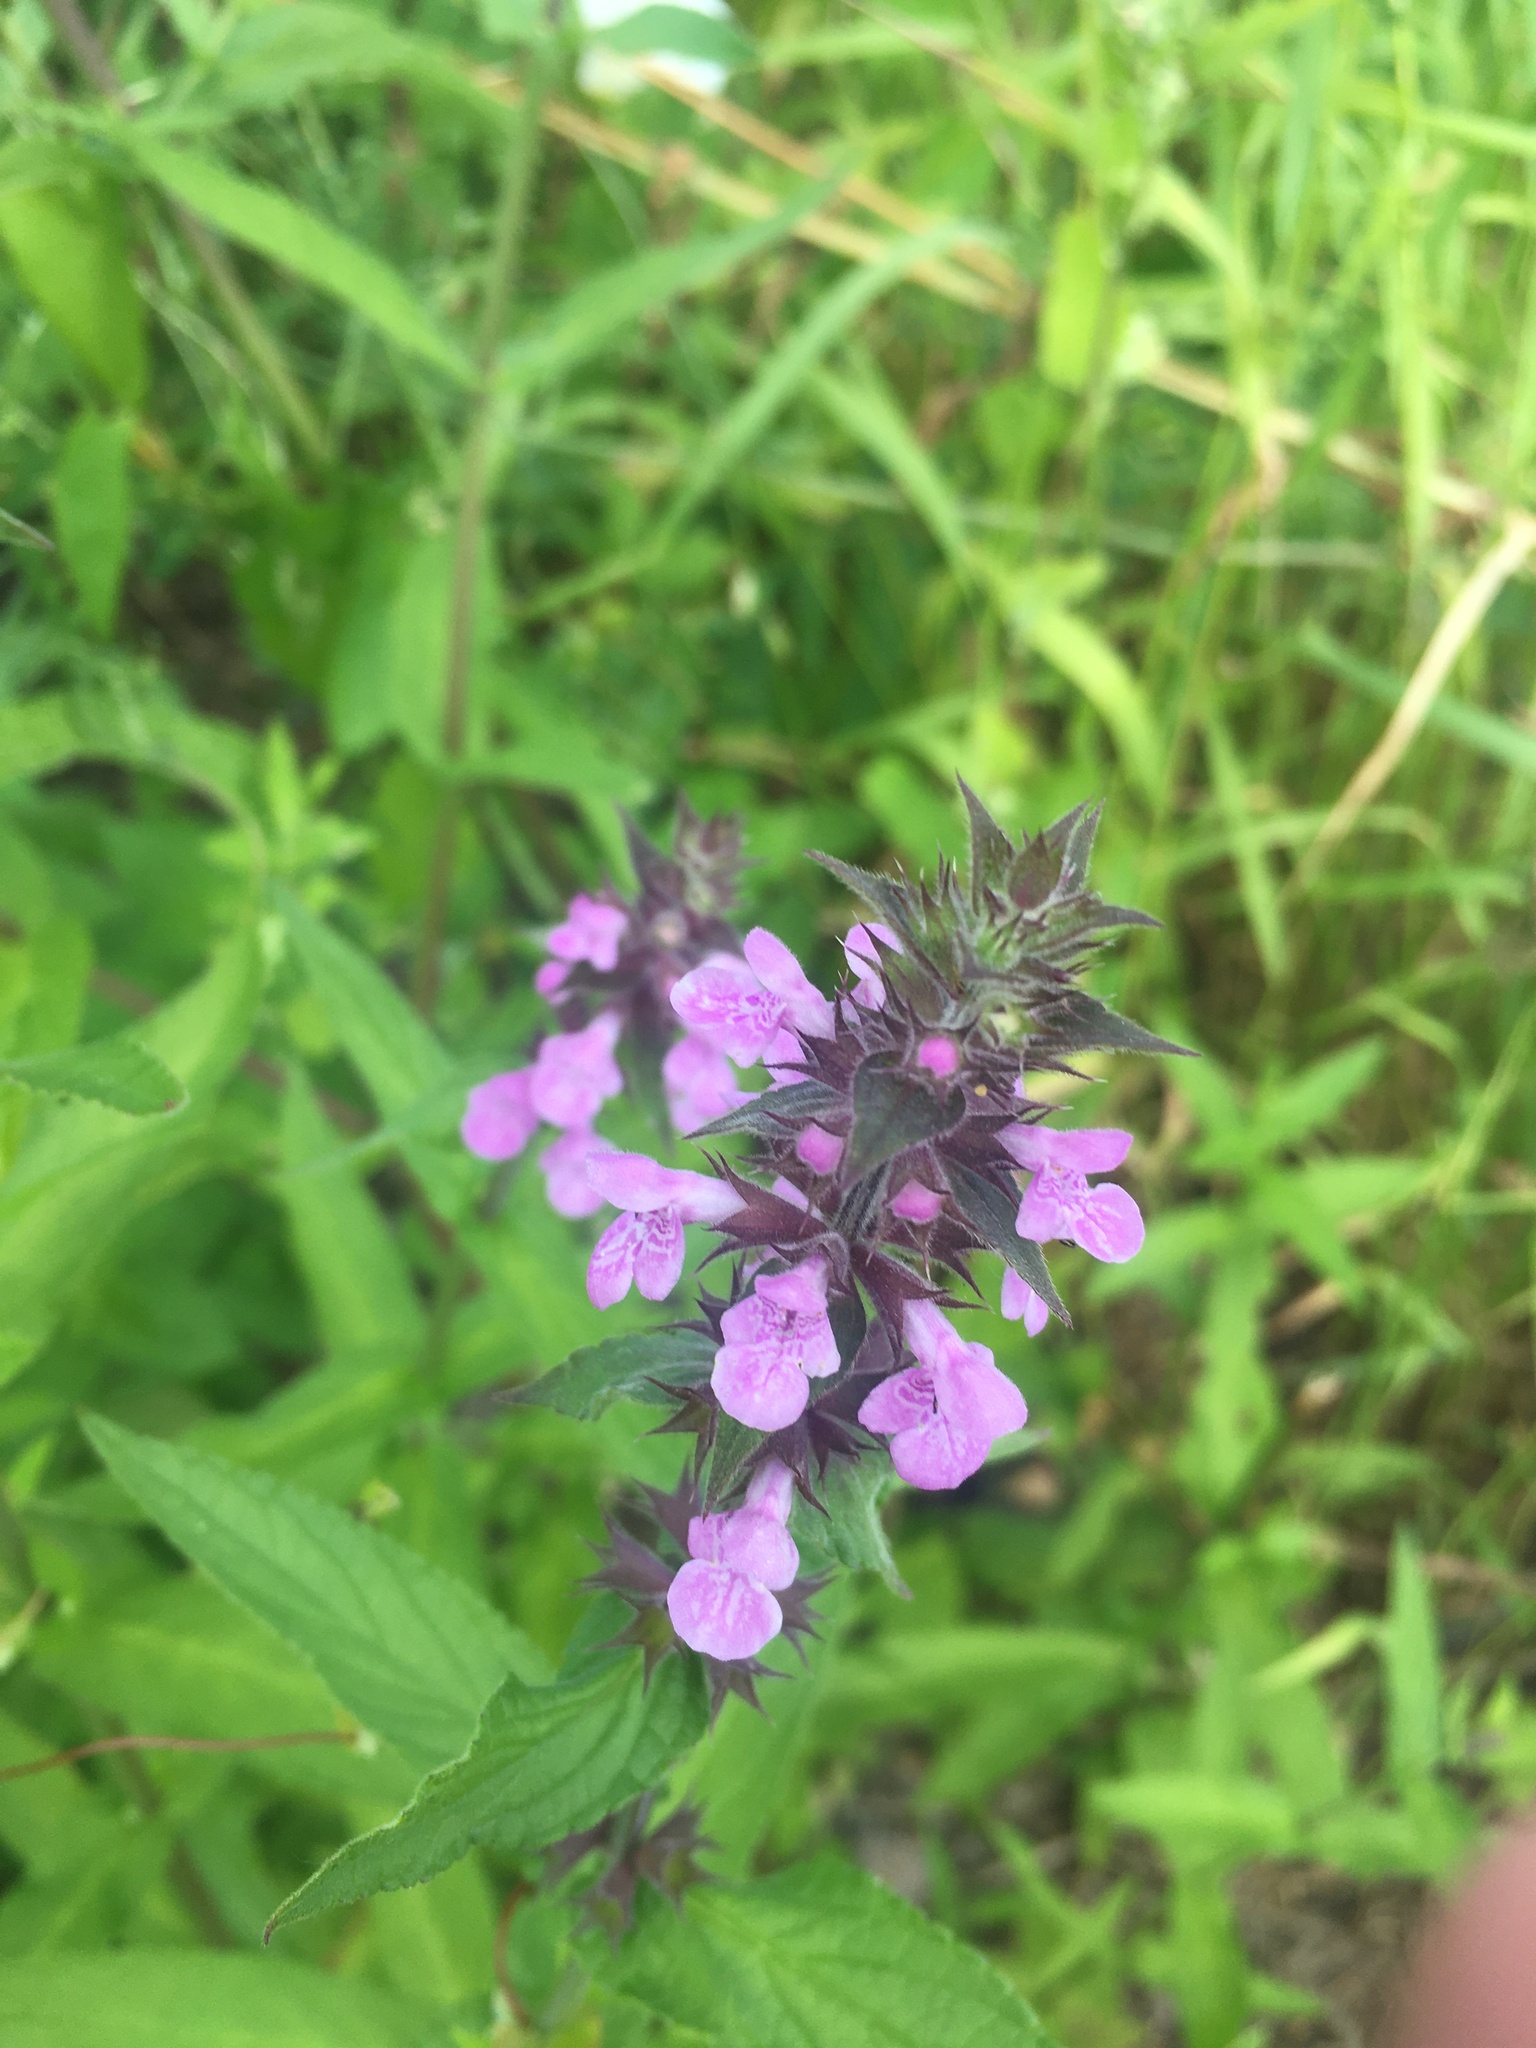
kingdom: Plantae
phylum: Tracheophyta
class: Magnoliopsida
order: Lamiales
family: Lamiaceae
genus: Stachys
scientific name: Stachys palustris
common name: Marsh woundwort
